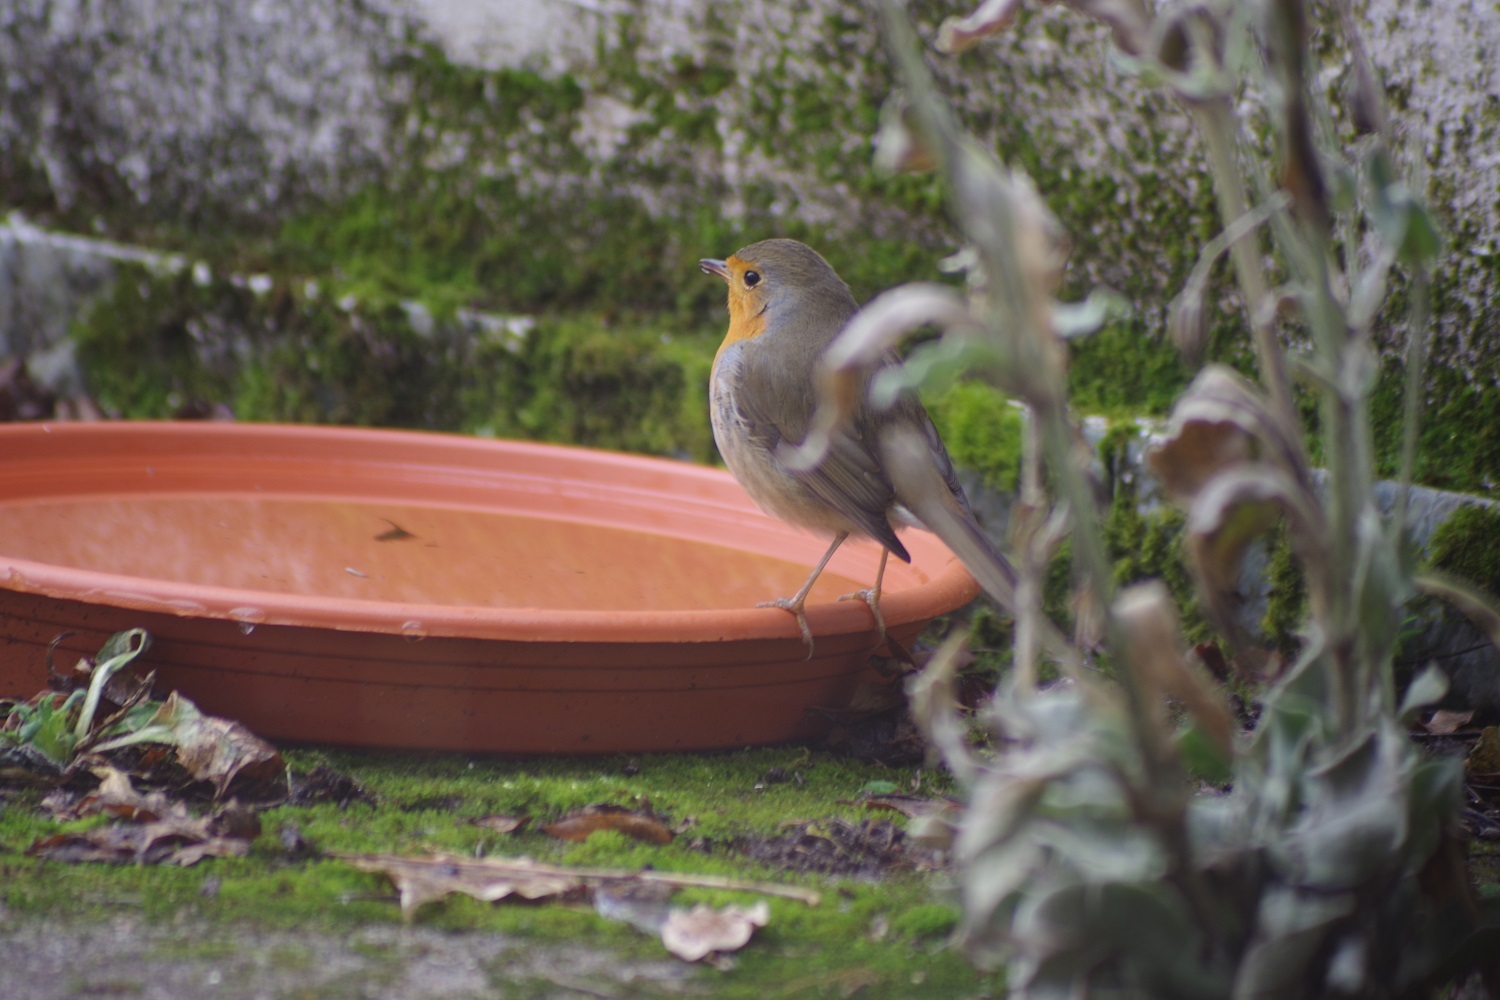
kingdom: Animalia
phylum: Chordata
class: Aves
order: Passeriformes
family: Muscicapidae
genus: Erithacus
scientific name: Erithacus rubecula
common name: European robin
